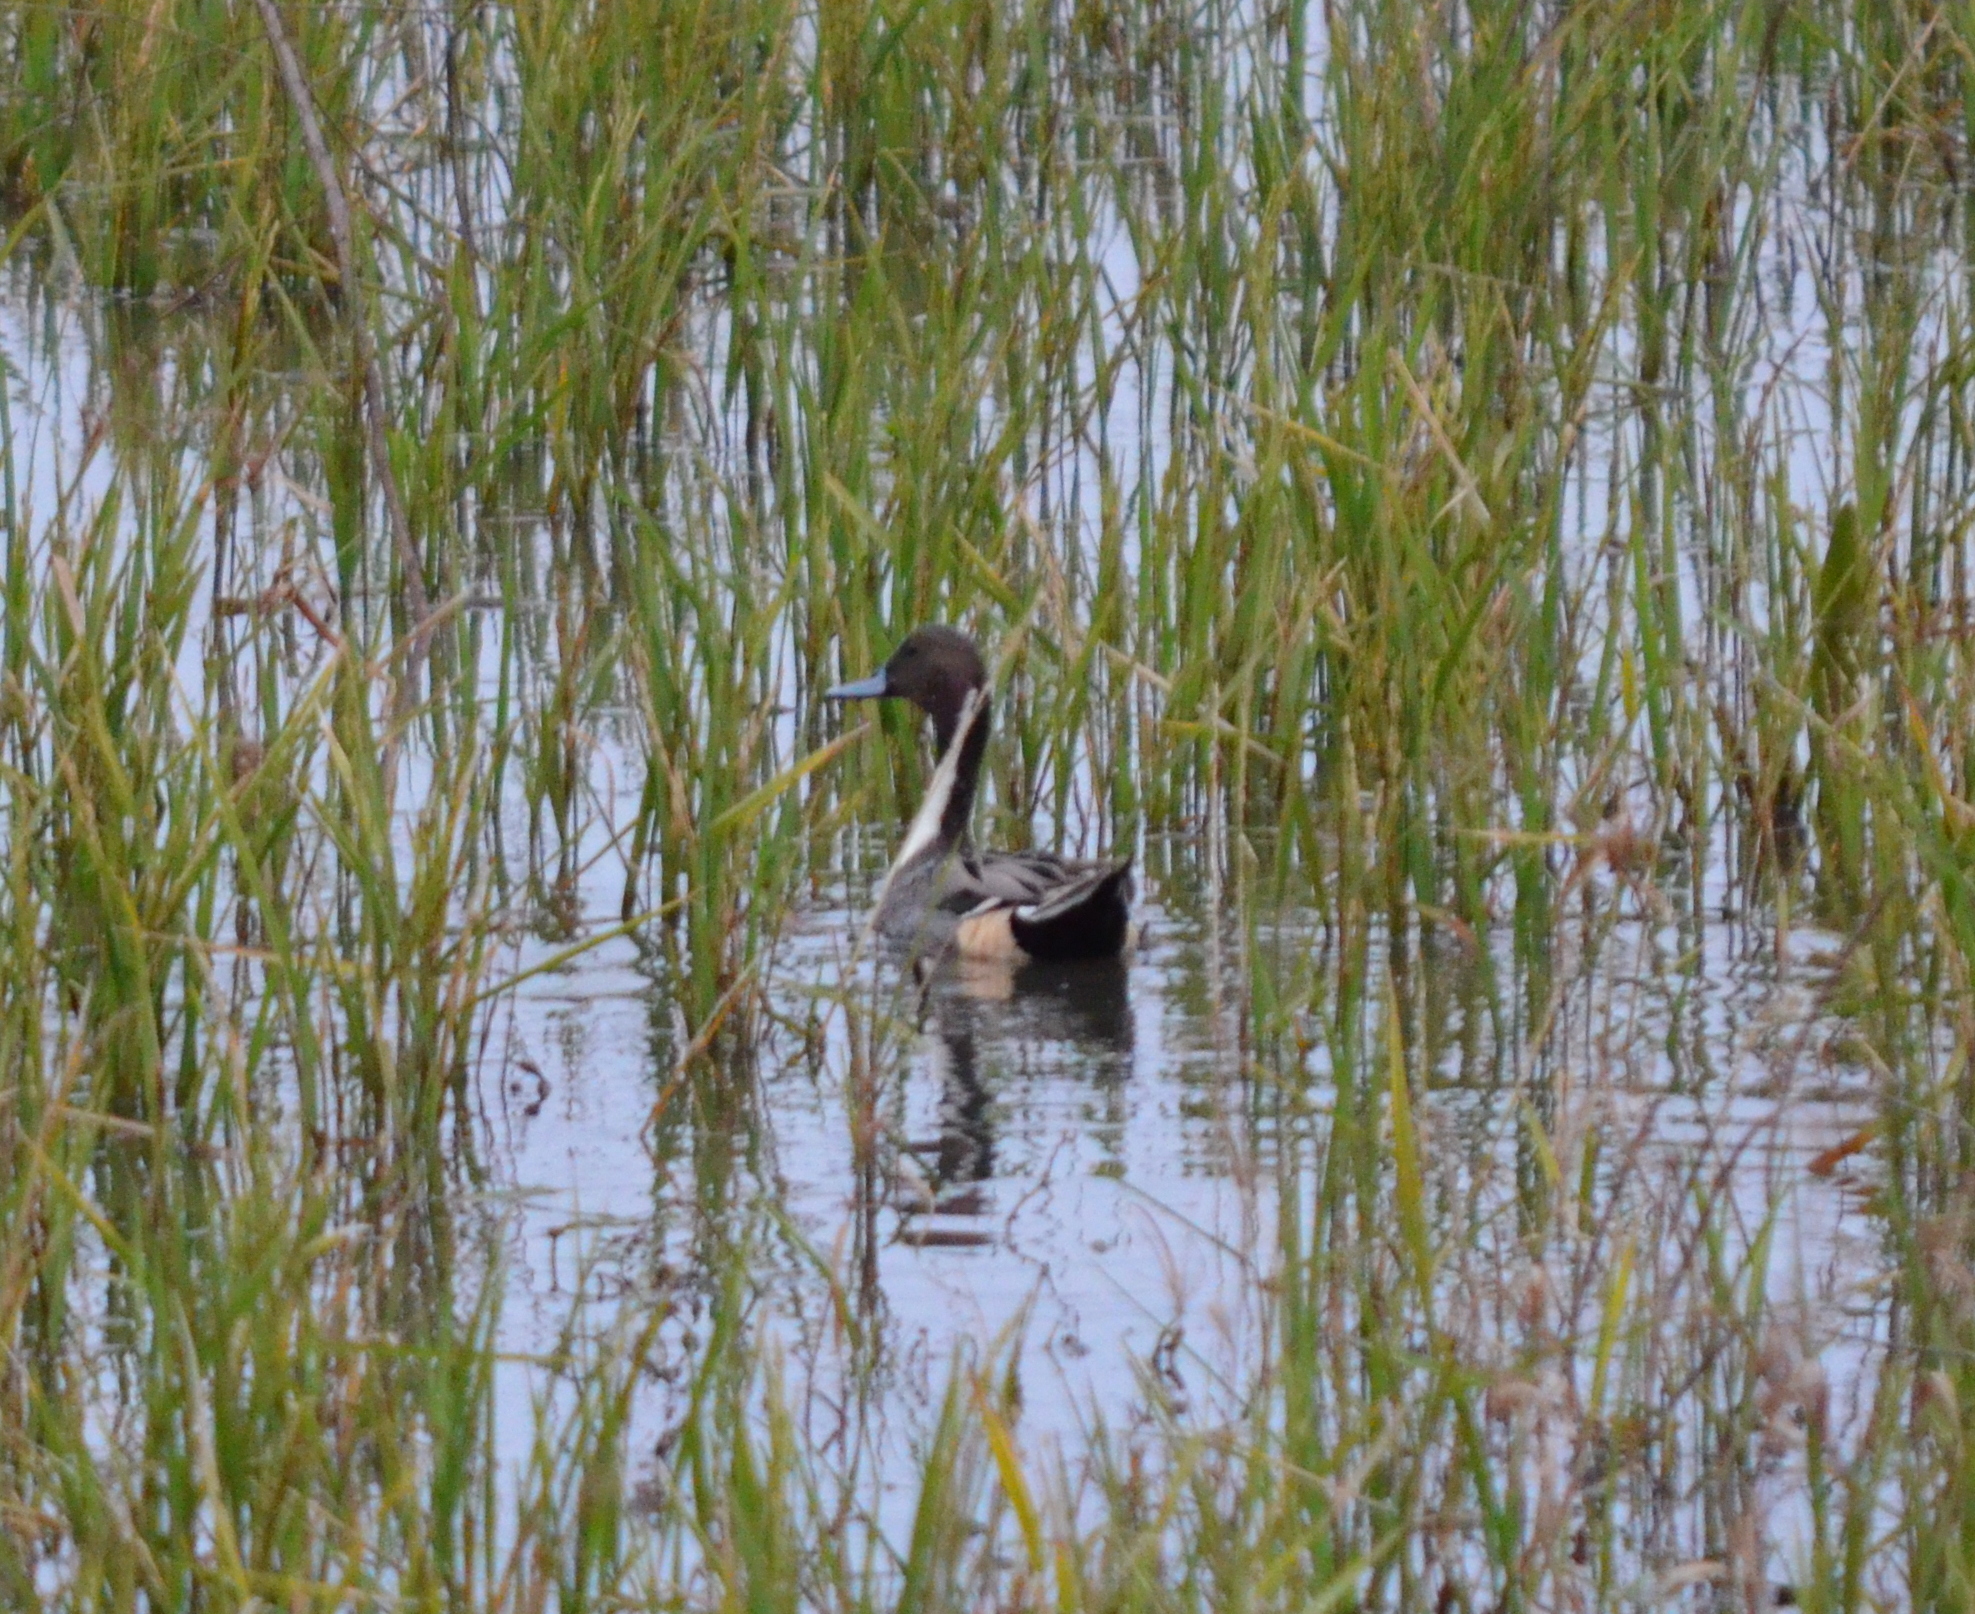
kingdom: Animalia
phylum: Chordata
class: Aves
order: Anseriformes
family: Anatidae
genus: Anas
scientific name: Anas acuta
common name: Northern pintail
